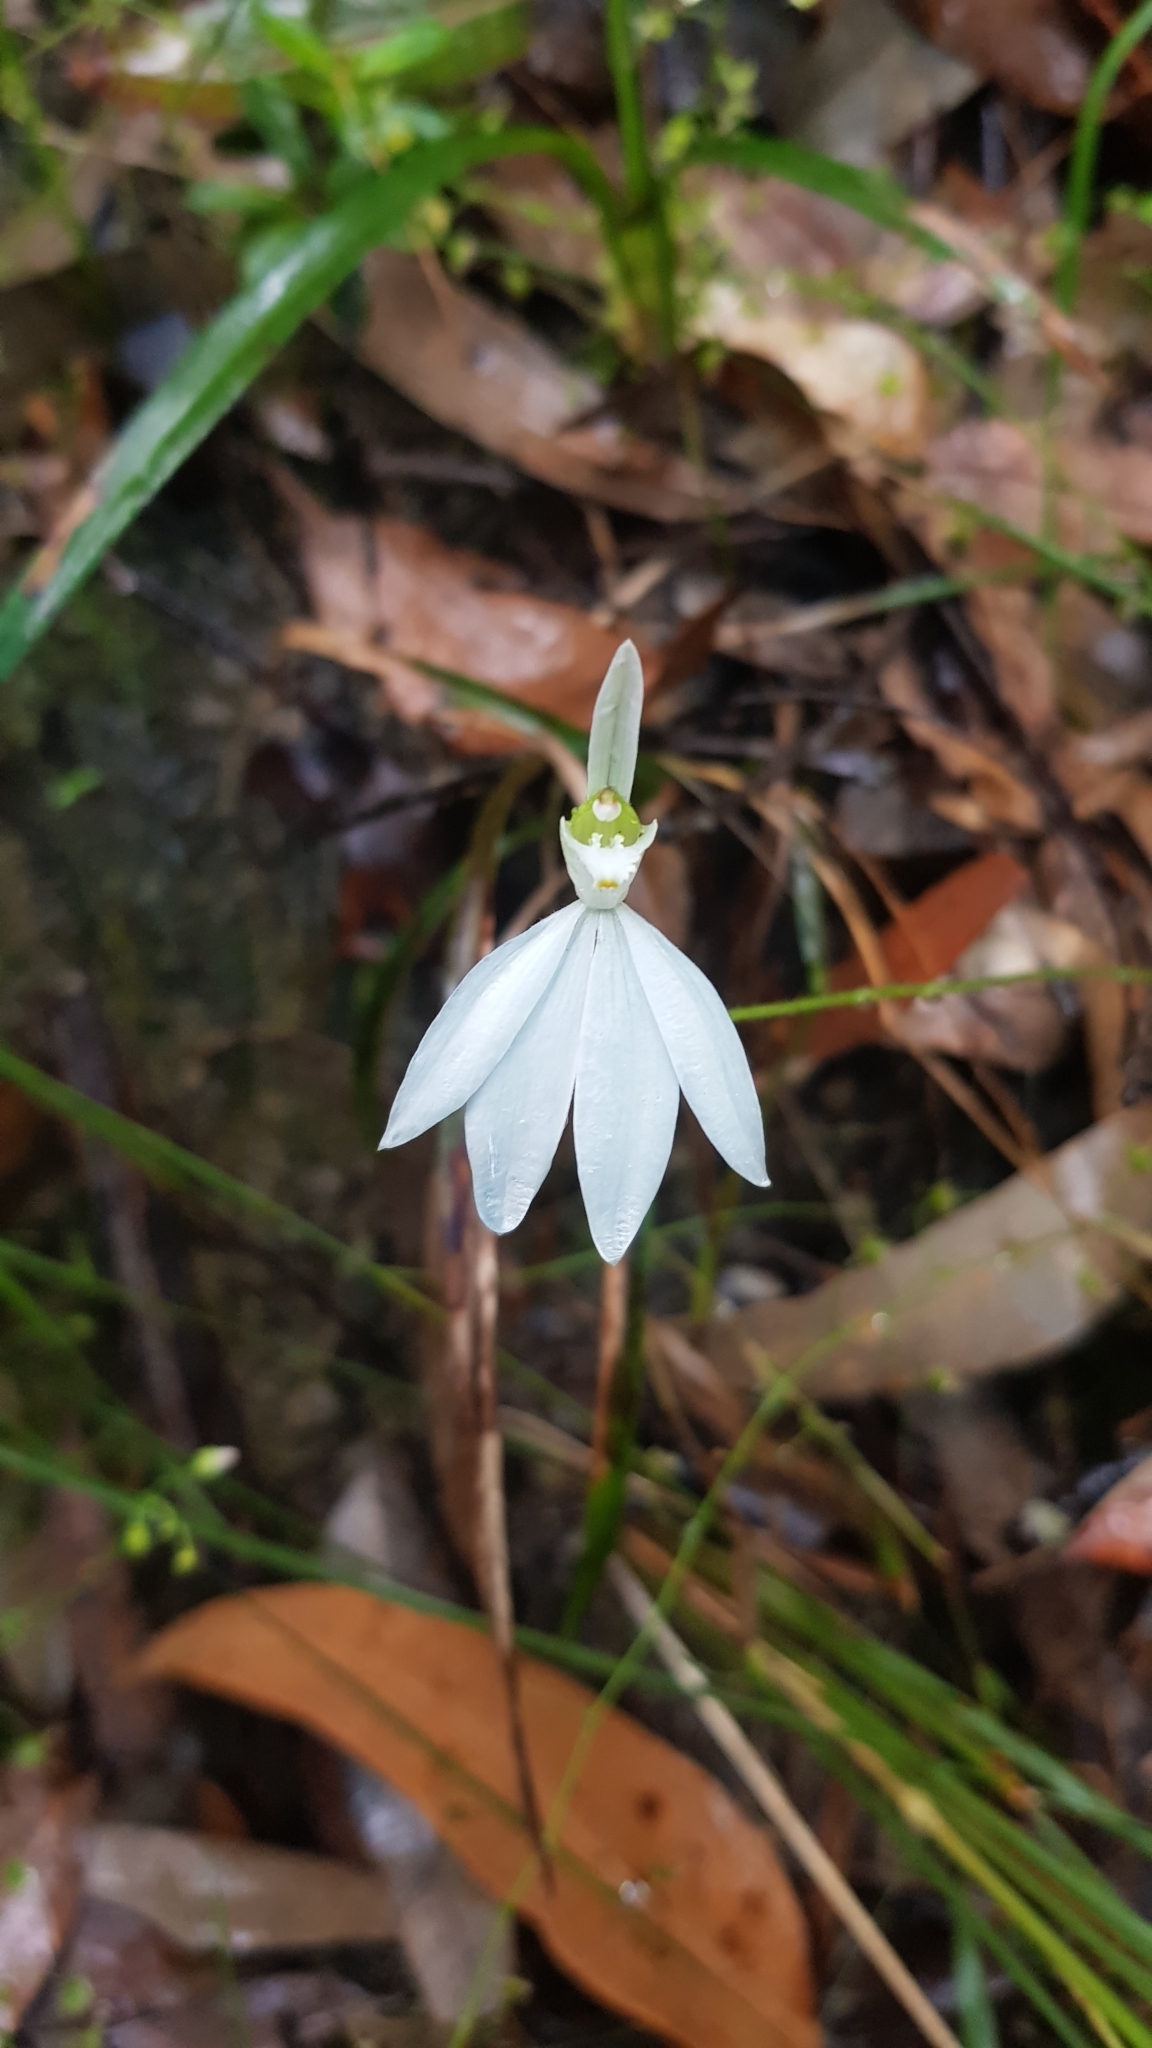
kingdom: Plantae
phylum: Tracheophyta
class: Liliopsida
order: Asparagales
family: Orchidaceae
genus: Caladenia
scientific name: Caladenia catenata
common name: White caladenia
